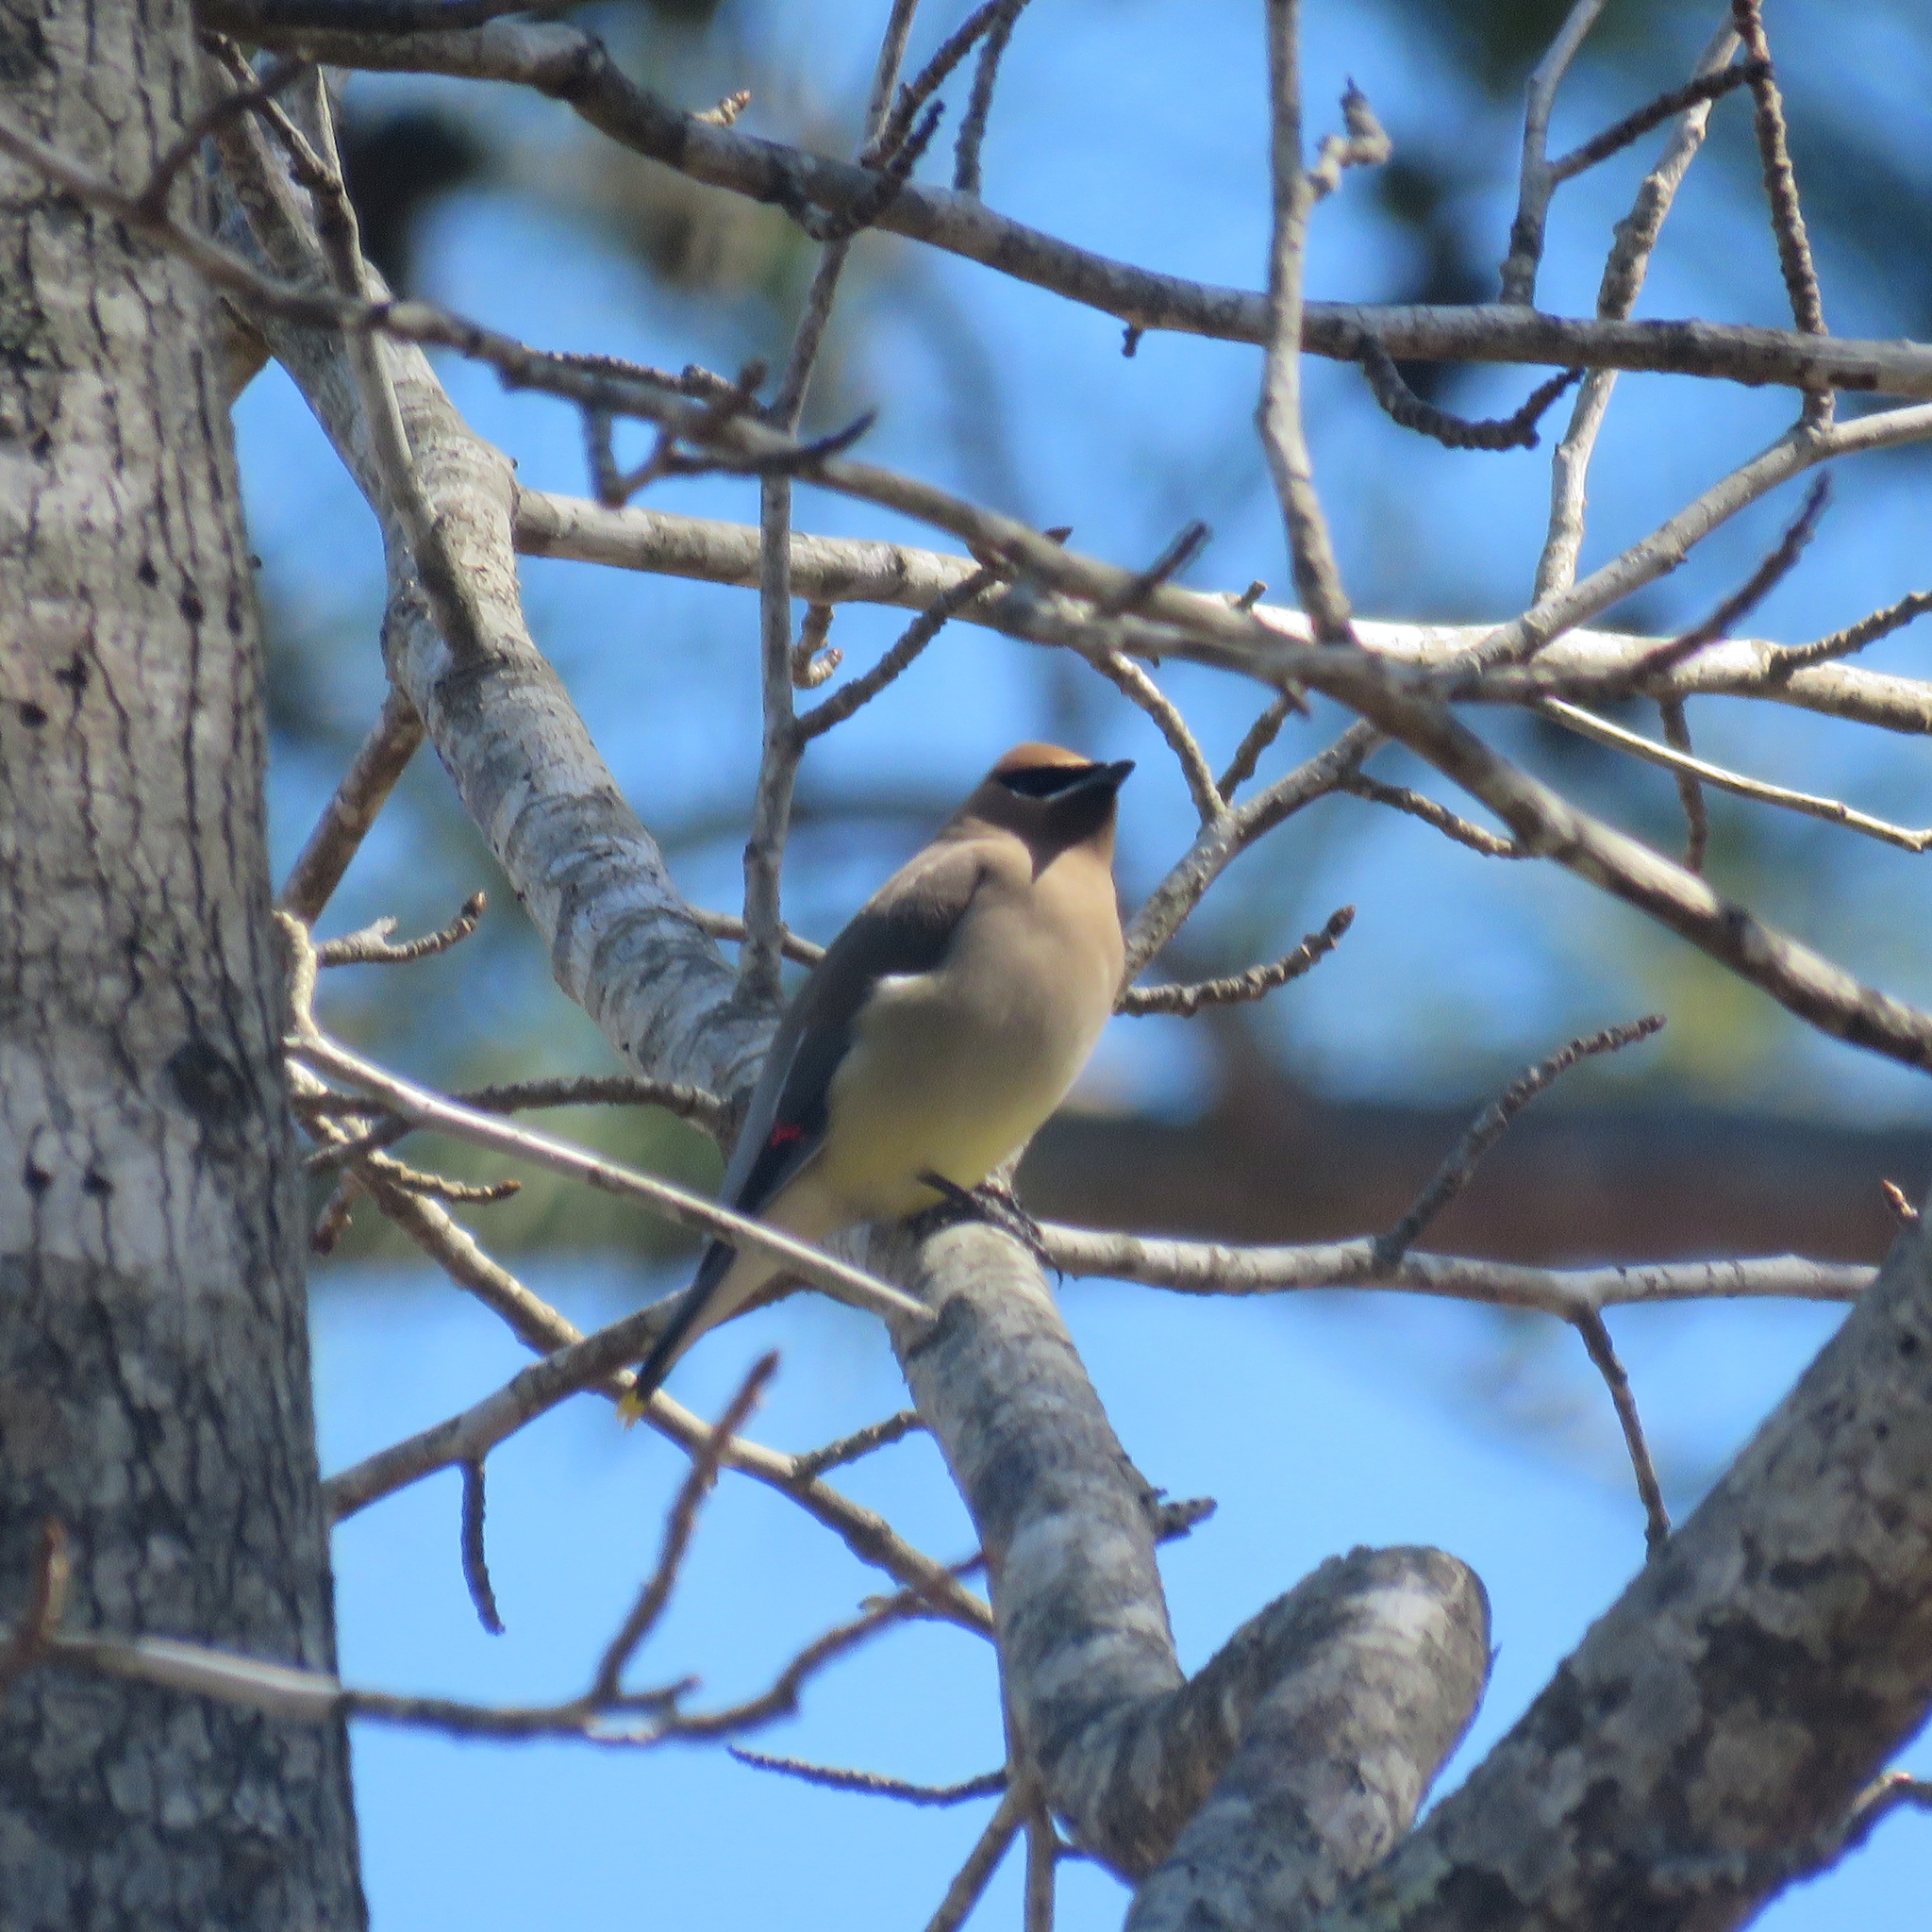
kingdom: Animalia
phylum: Chordata
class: Aves
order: Passeriformes
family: Bombycillidae
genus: Bombycilla
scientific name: Bombycilla cedrorum
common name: Cedar waxwing
